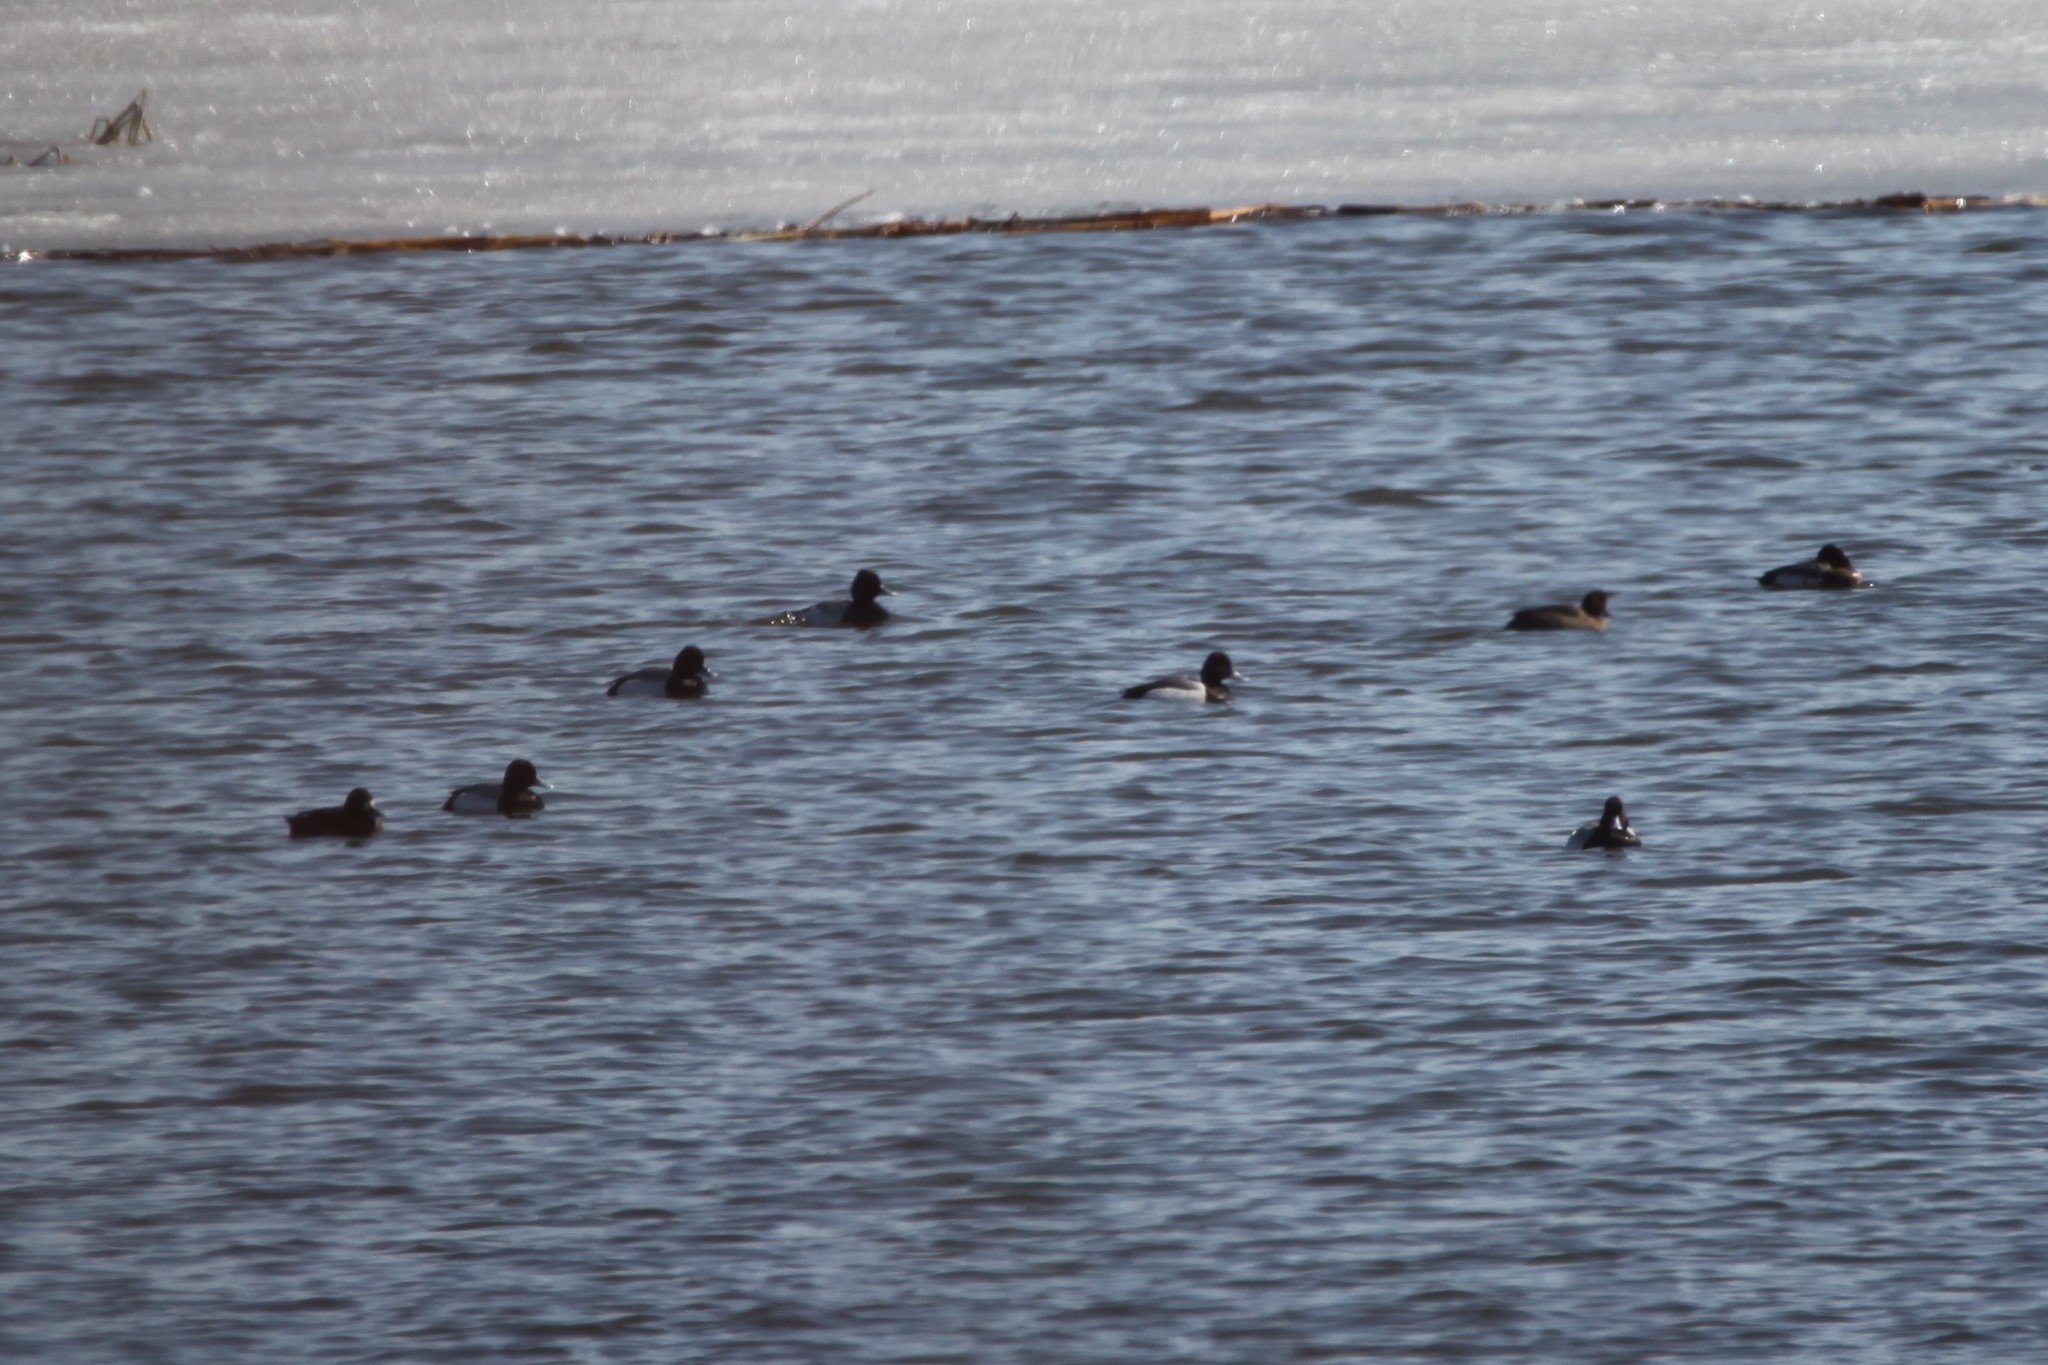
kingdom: Animalia
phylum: Chordata
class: Aves
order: Anseriformes
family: Anatidae
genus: Aythya
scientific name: Aythya affinis
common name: Lesser scaup
